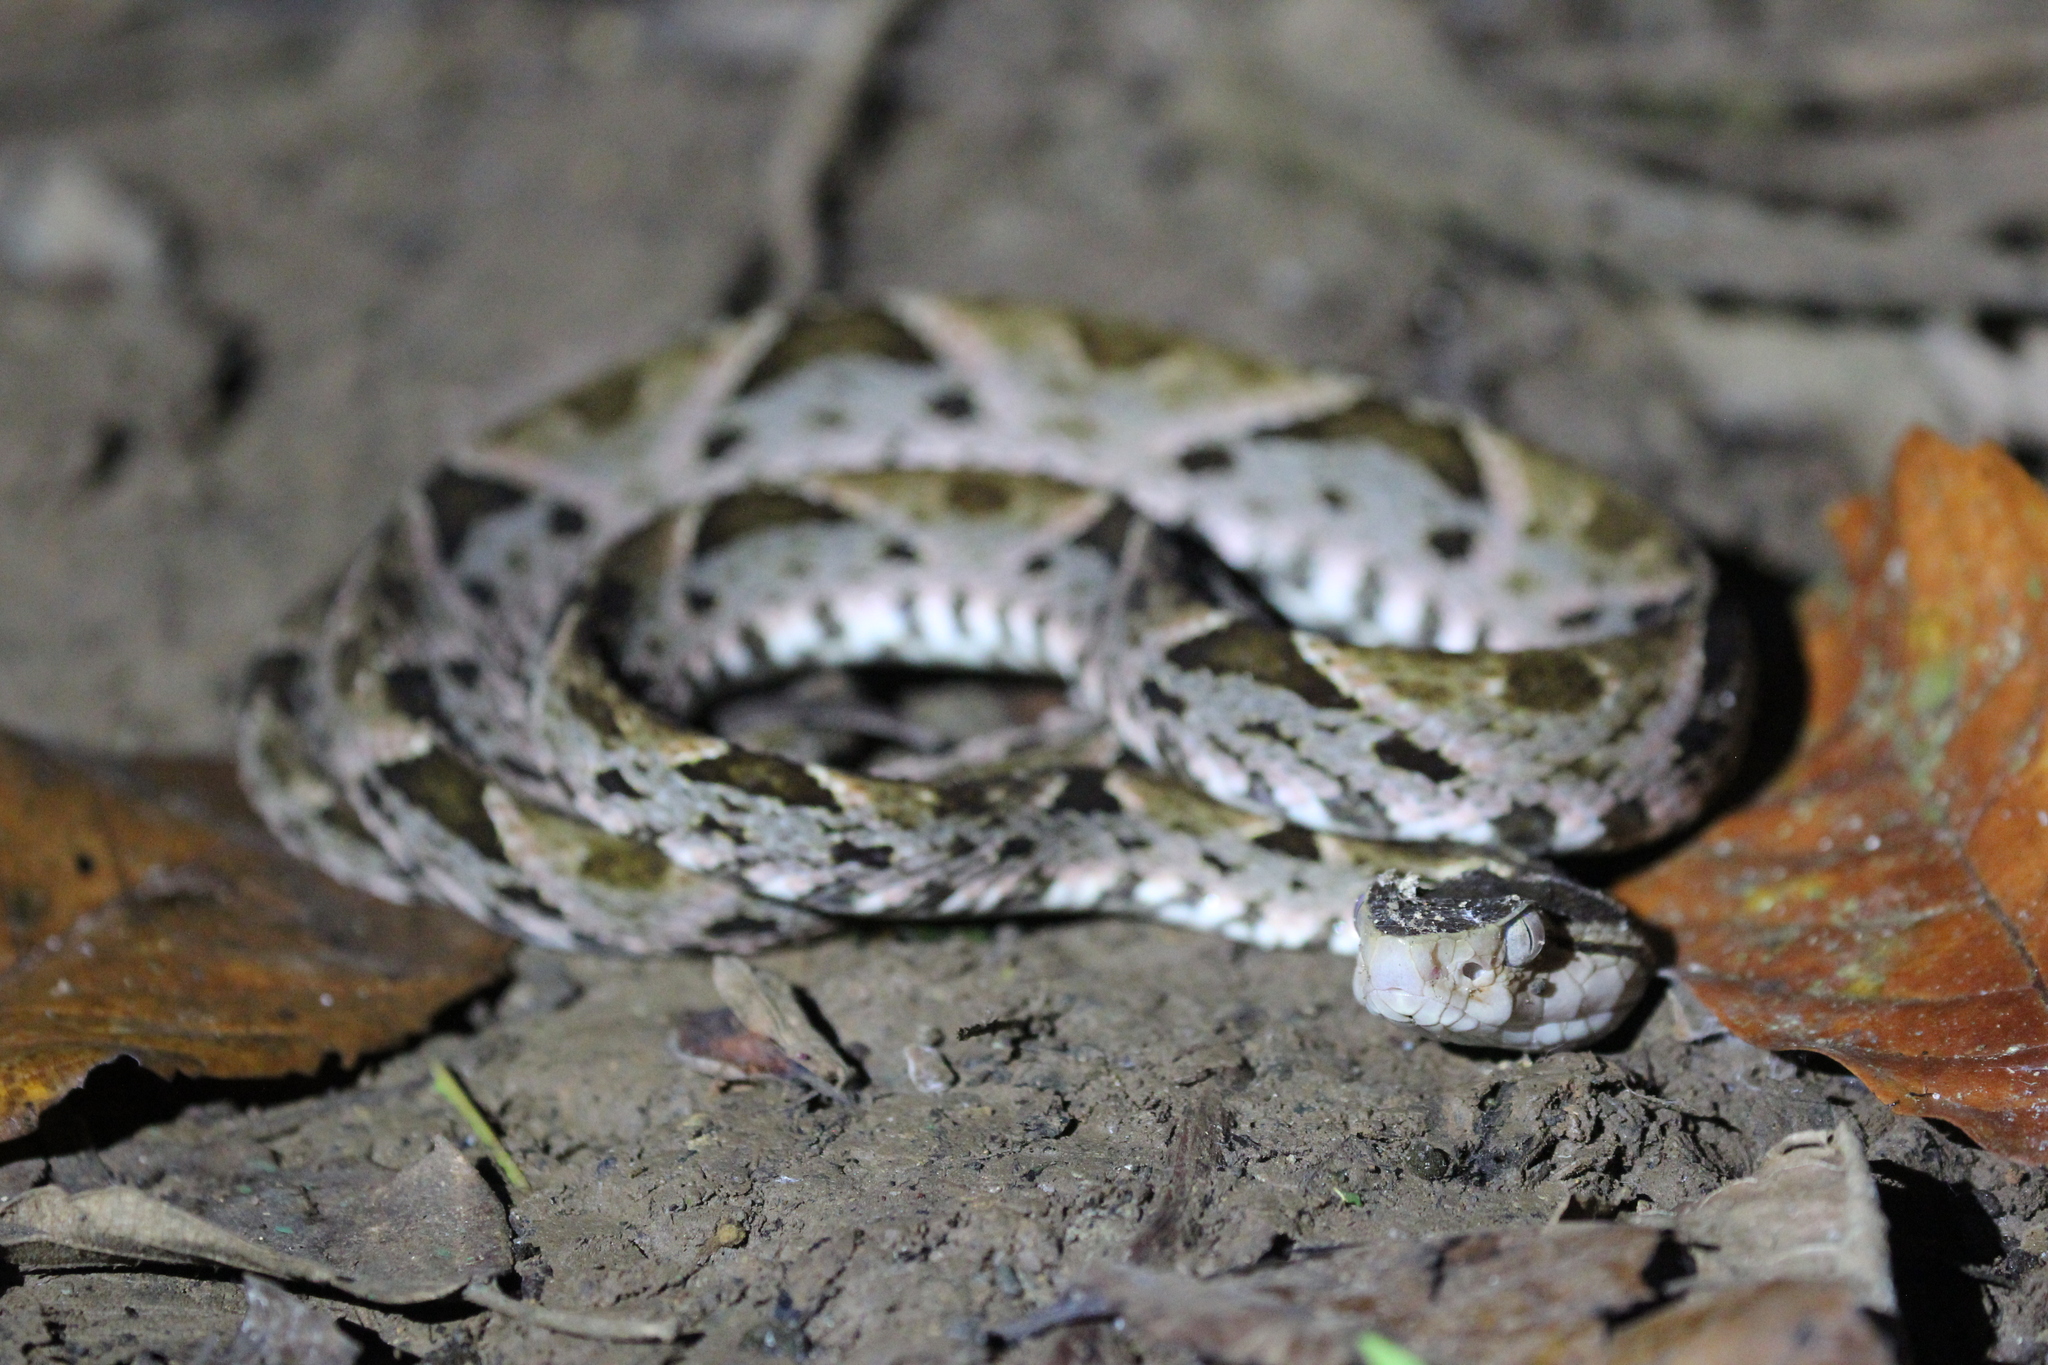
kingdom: Animalia
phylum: Chordata
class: Squamata
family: Viperidae
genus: Bothrops
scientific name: Bothrops asper
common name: Terciopelo
